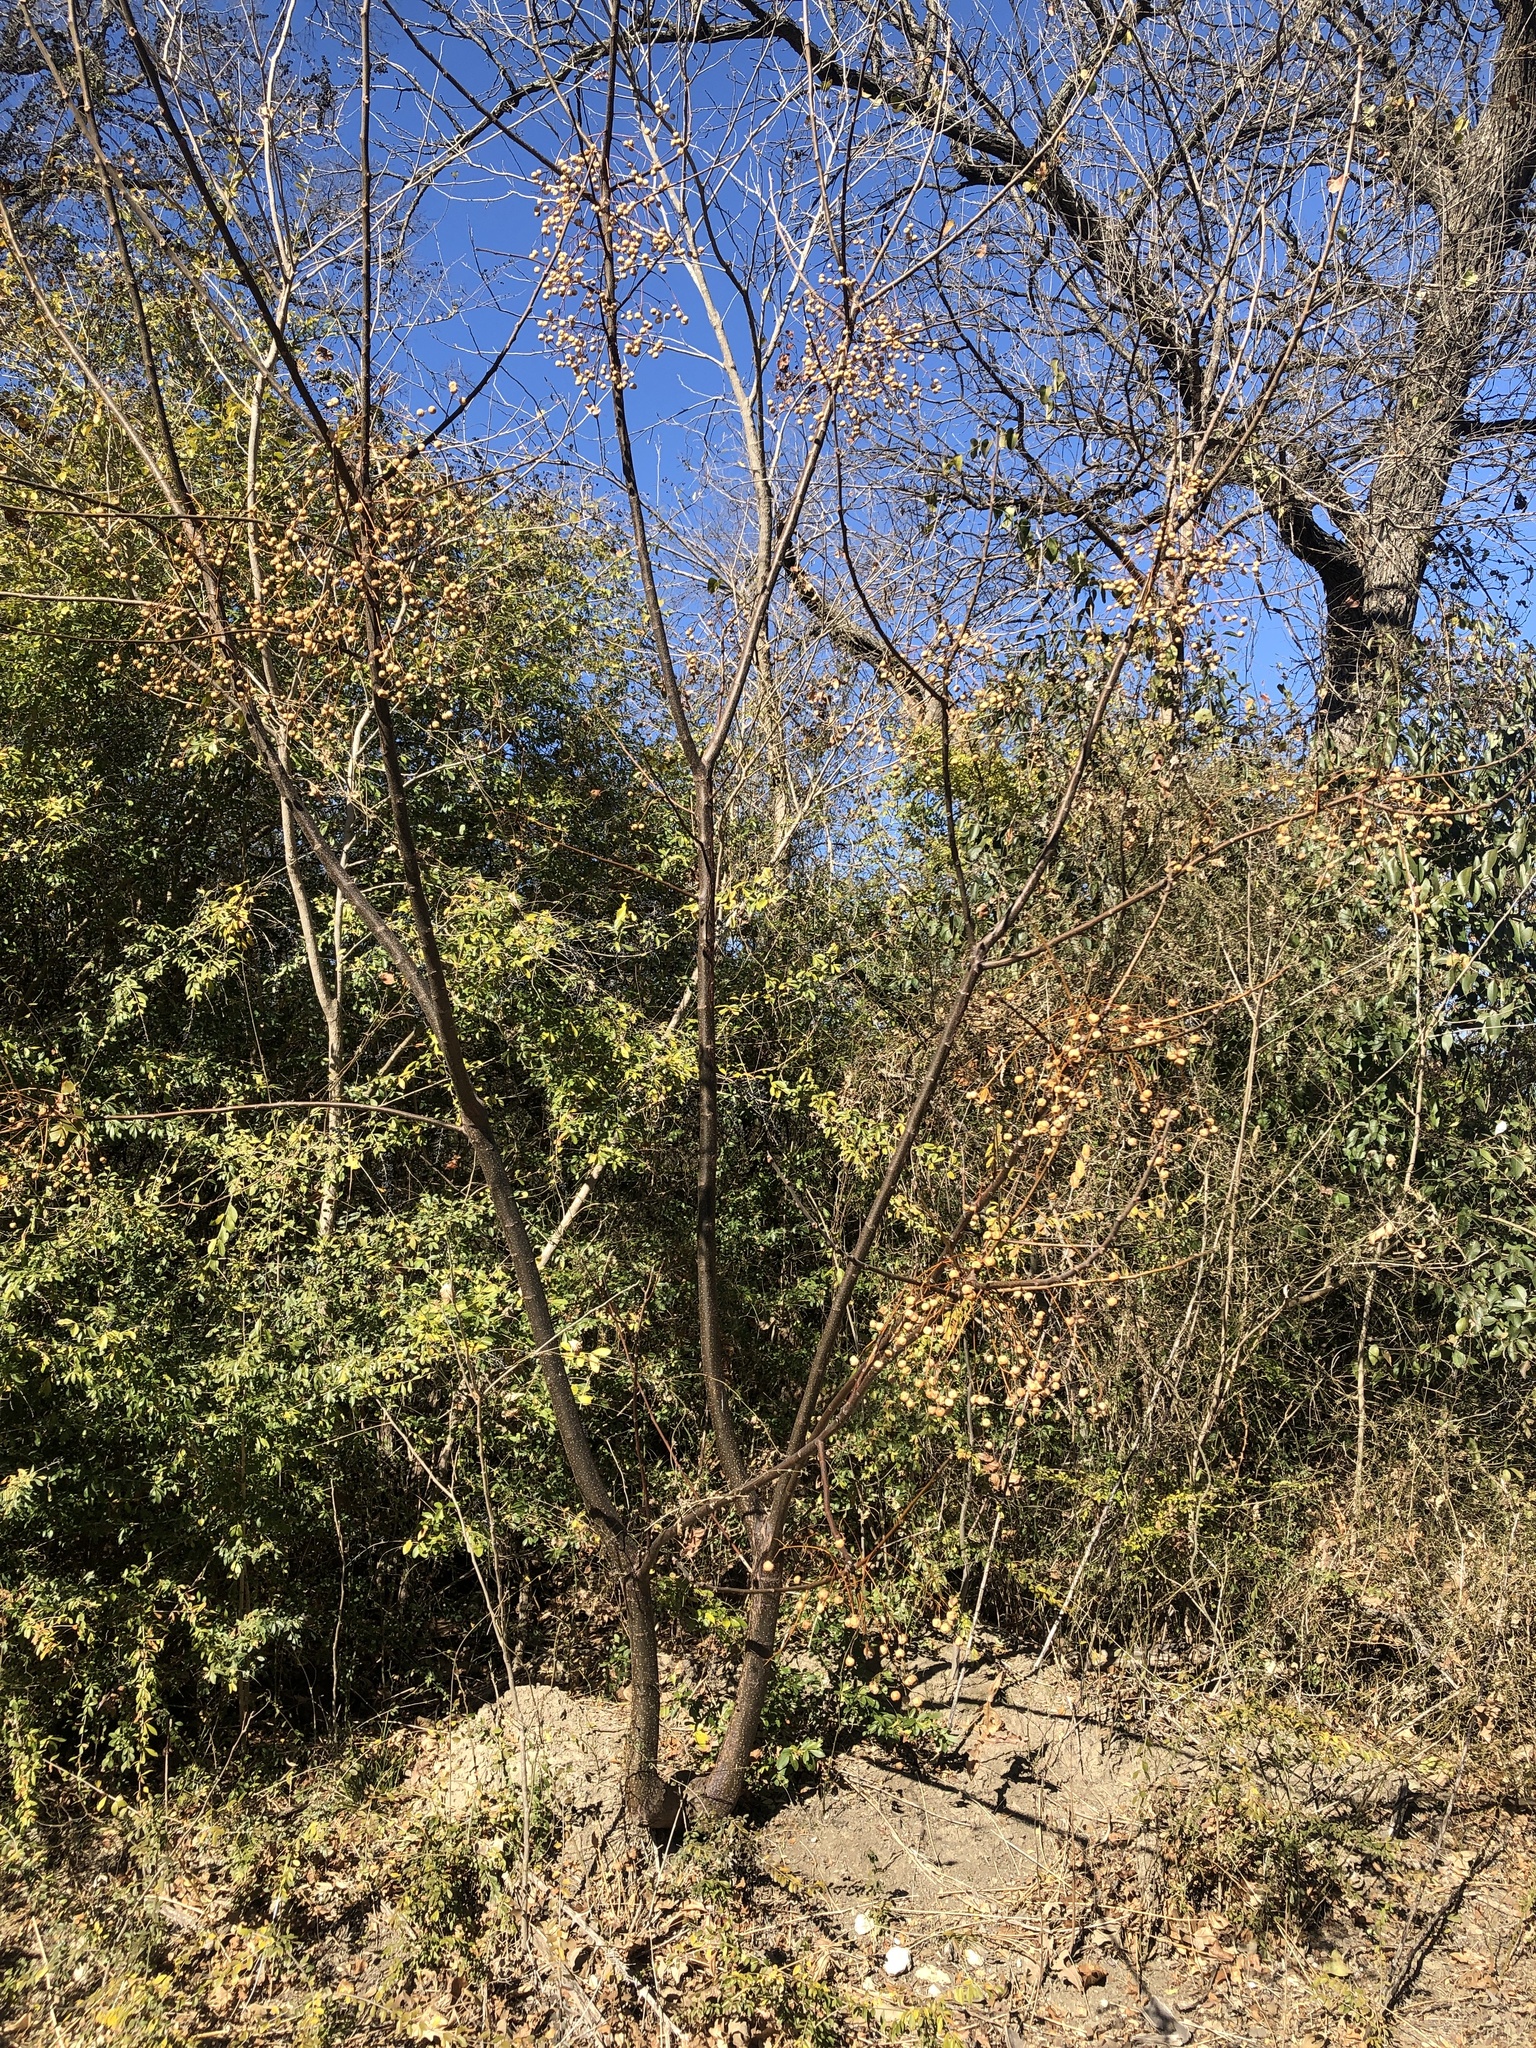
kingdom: Plantae
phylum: Tracheophyta
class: Magnoliopsida
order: Sapindales
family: Meliaceae
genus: Melia
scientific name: Melia azedarach
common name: Chinaberrytree
